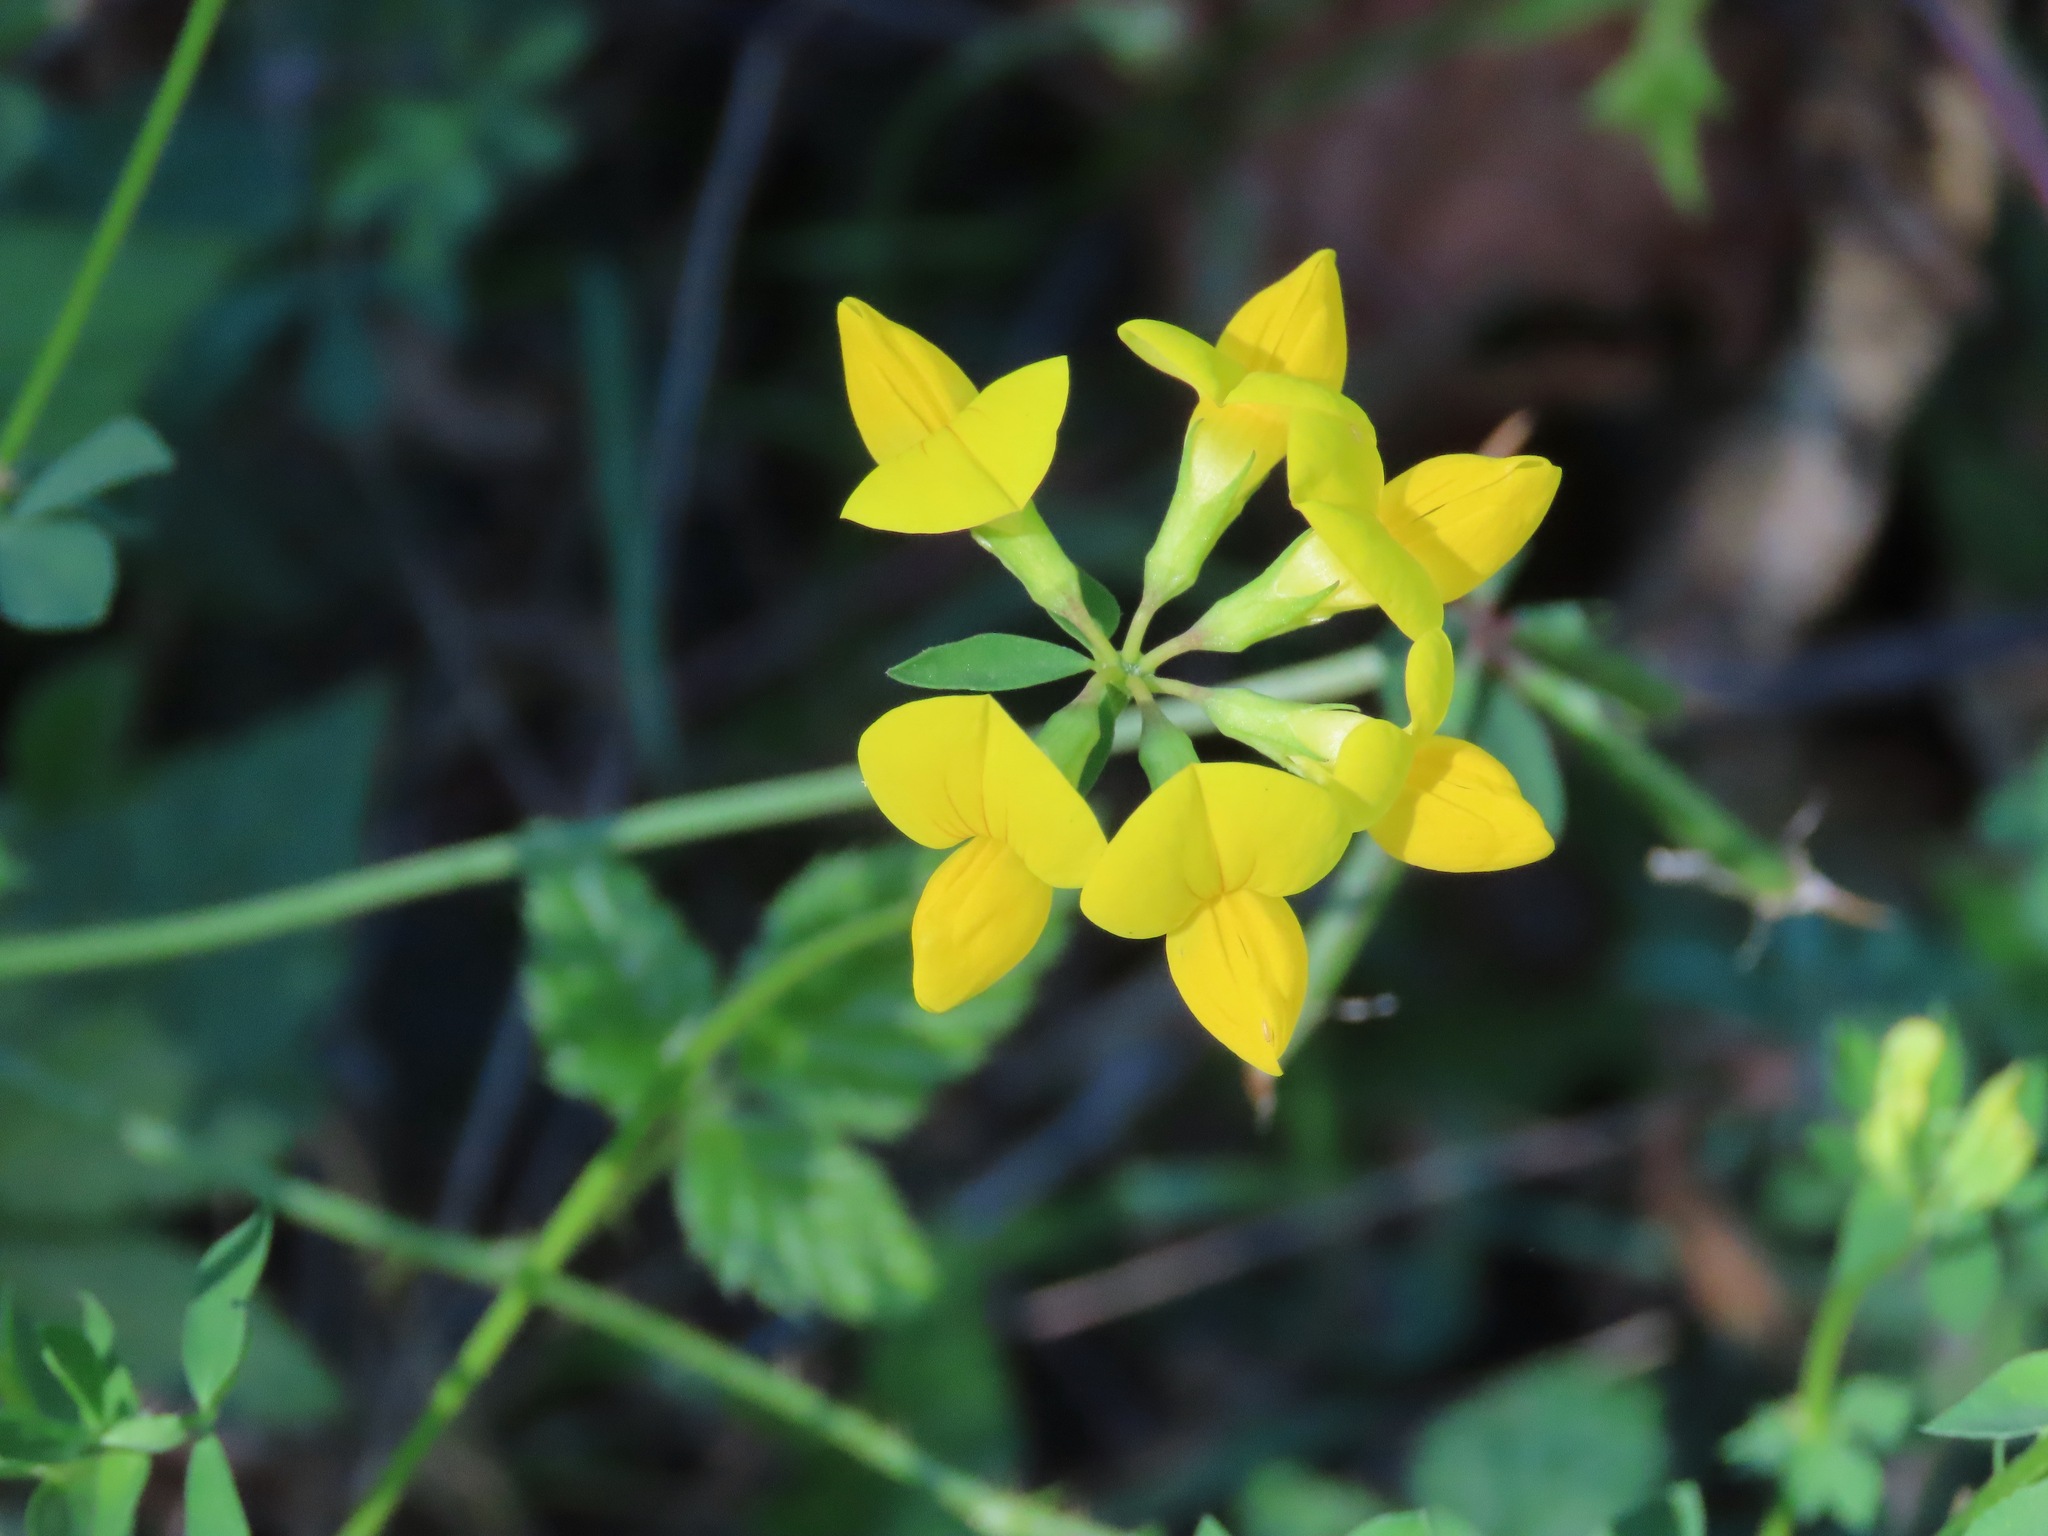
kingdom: Plantae
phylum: Tracheophyta
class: Magnoliopsida
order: Fabales
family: Fabaceae
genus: Lotus
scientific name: Lotus corniculatus
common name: Common bird's-foot-trefoil
